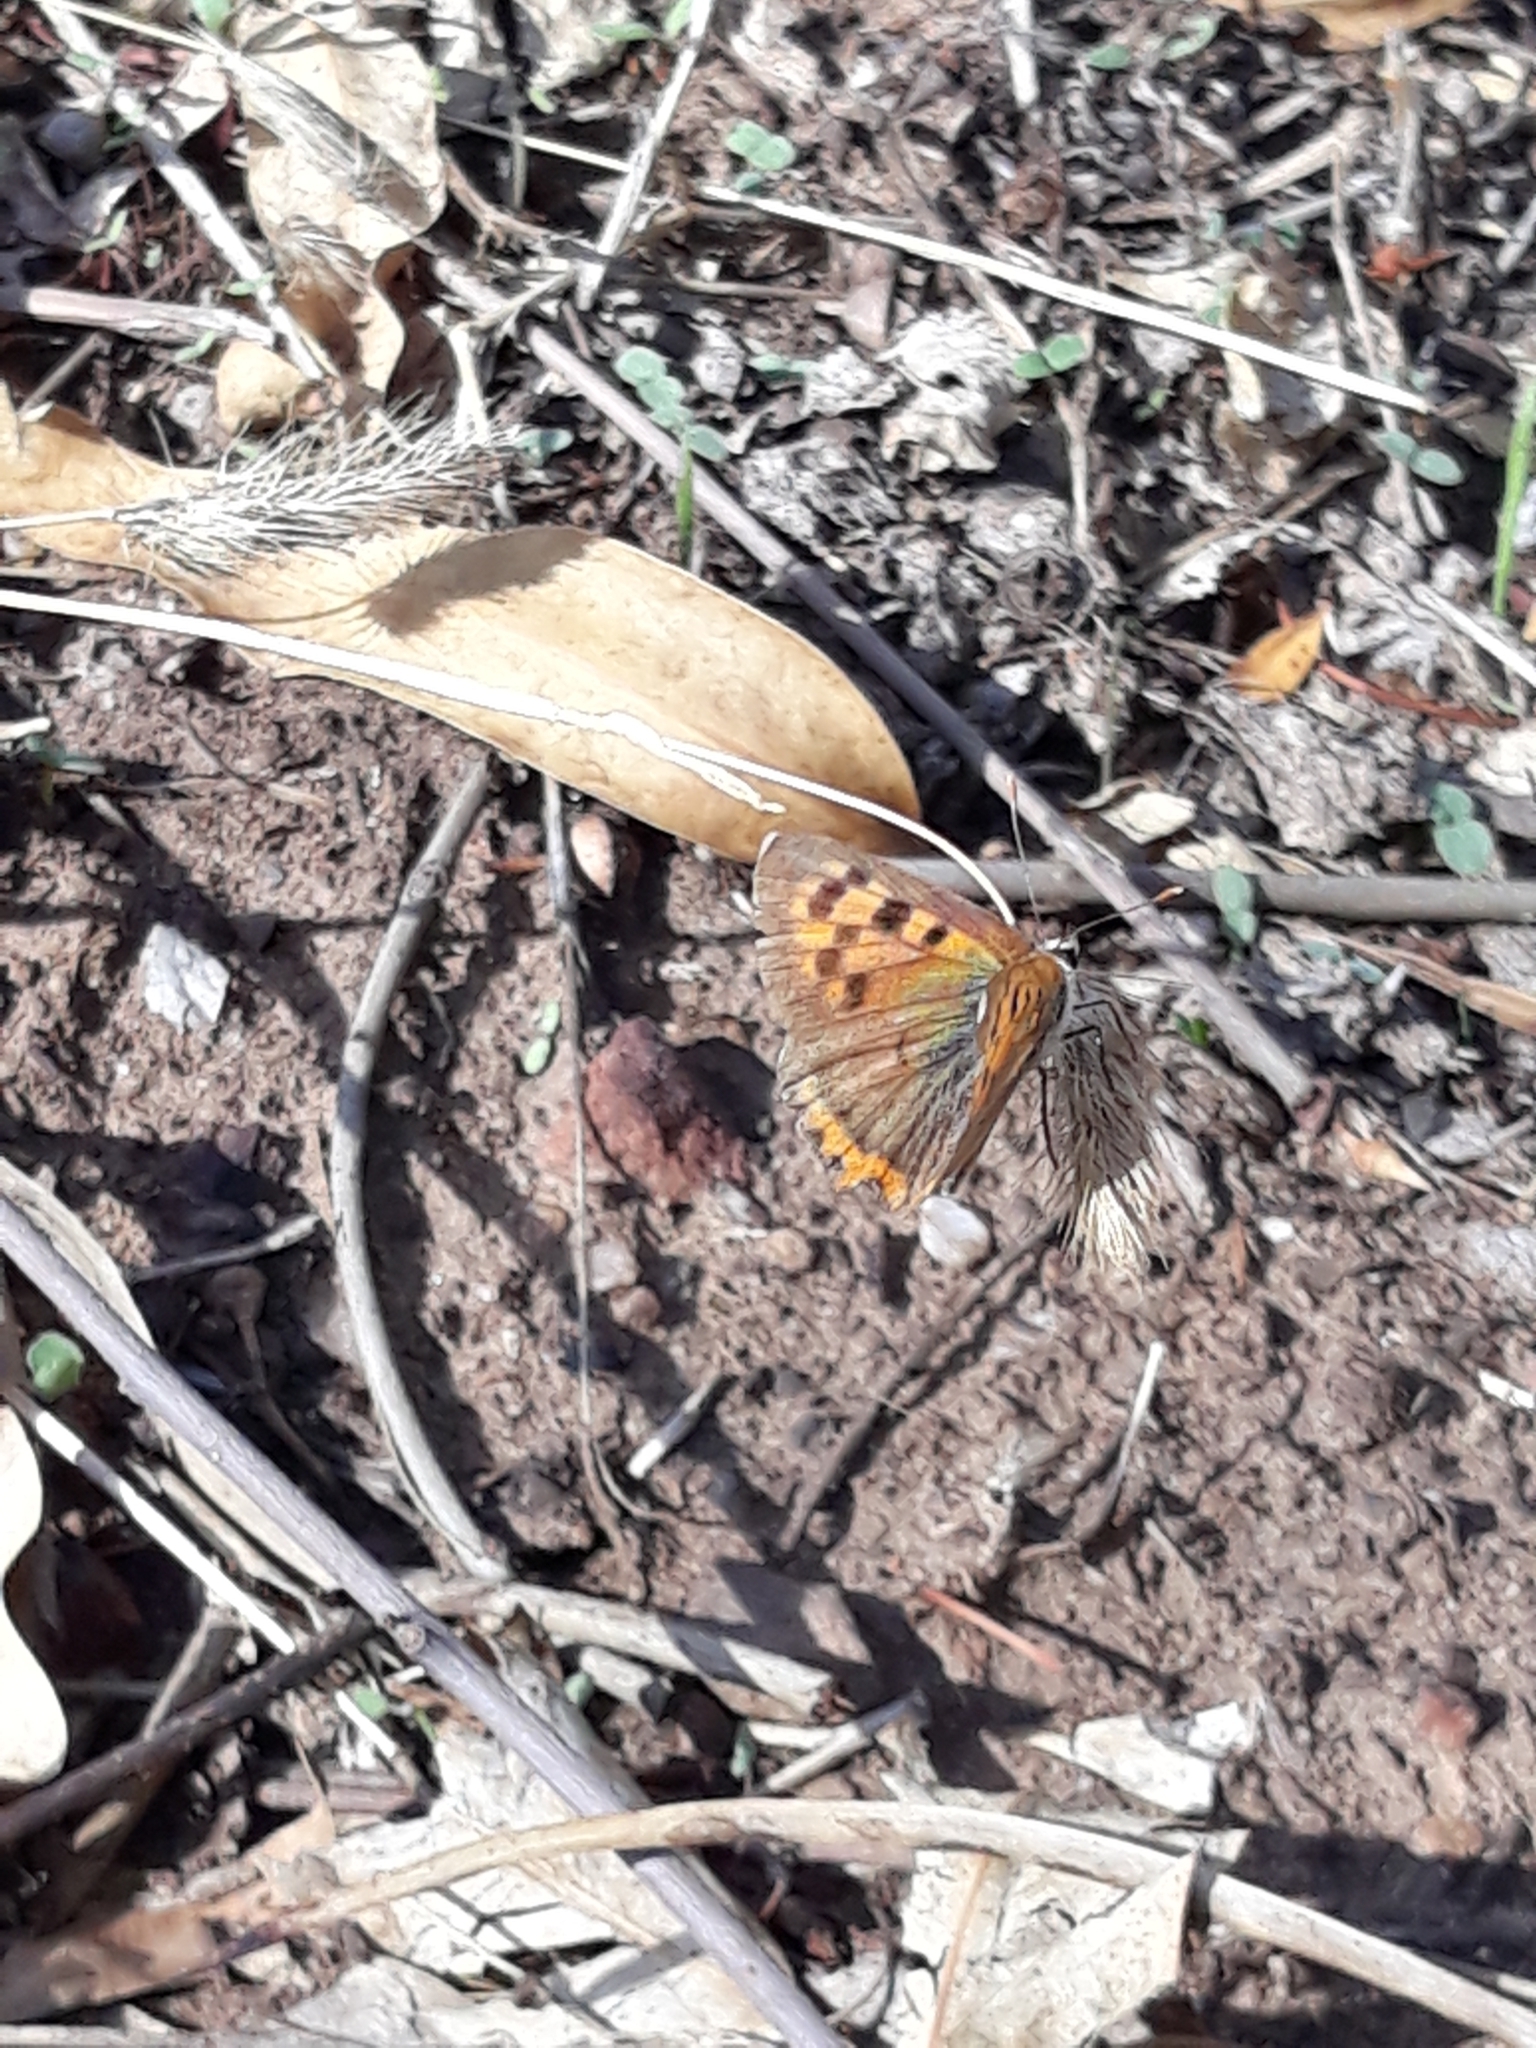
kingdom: Animalia
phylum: Arthropoda
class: Insecta
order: Lepidoptera
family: Lycaenidae
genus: Lycaena
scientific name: Lycaena phlaeas
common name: Small copper
